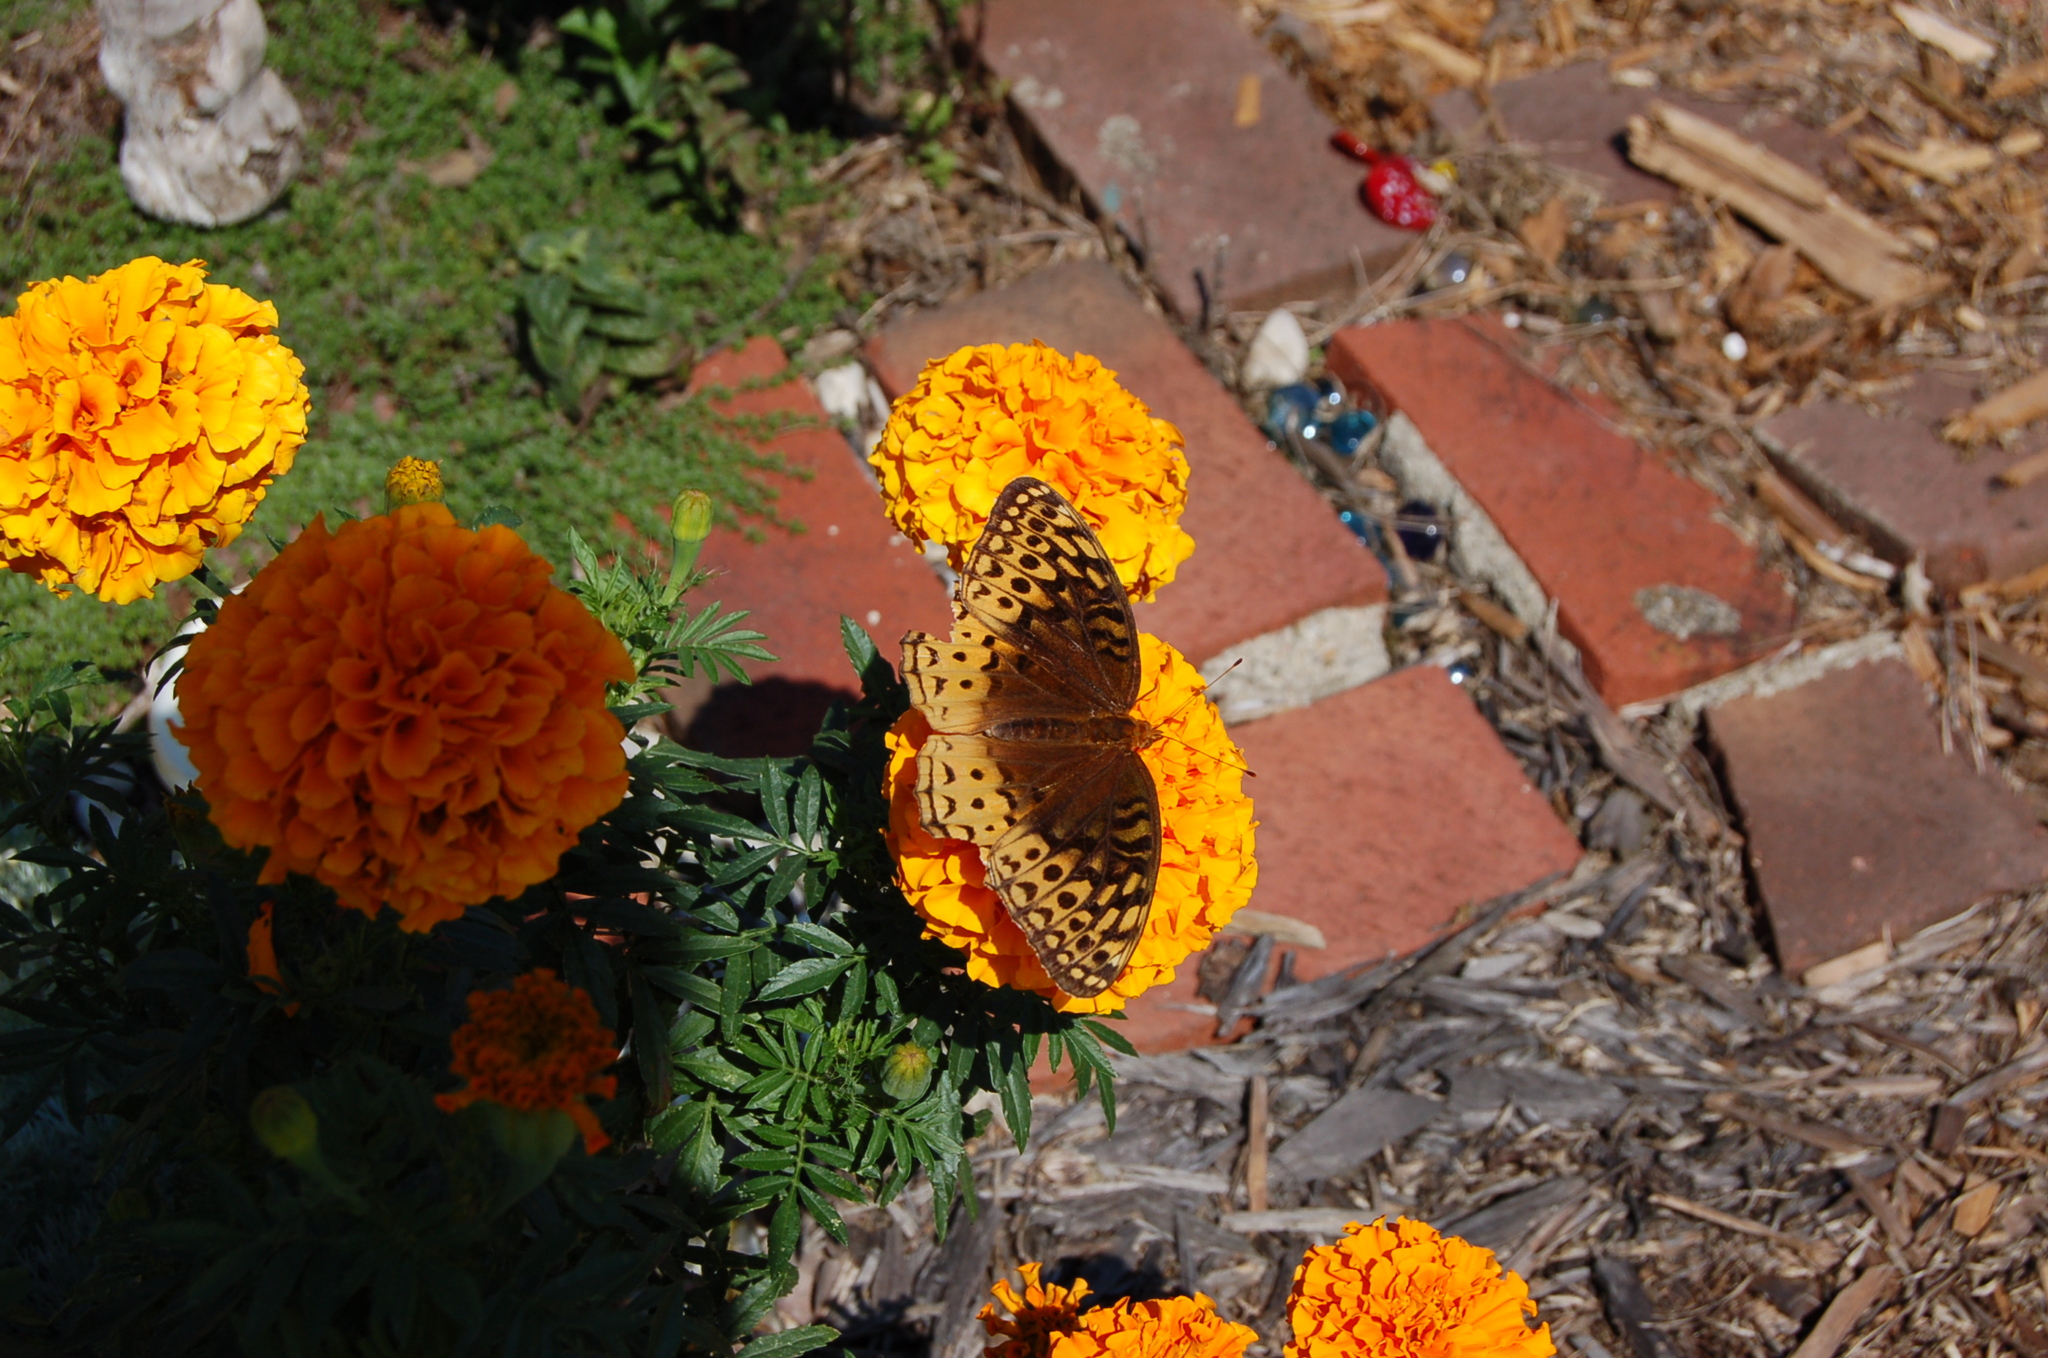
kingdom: Animalia
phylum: Arthropoda
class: Insecta
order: Lepidoptera
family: Nymphalidae
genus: Speyeria
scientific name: Speyeria cybele
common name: Great spangled fritillary
